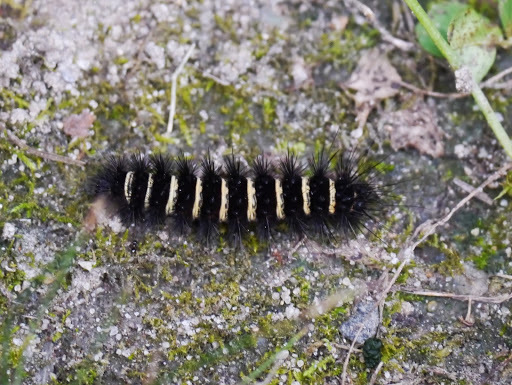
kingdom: Animalia
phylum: Arthropoda
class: Insecta
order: Lepidoptera
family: Erebidae
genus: Spilosoma
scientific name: Spilosoma congrua
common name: Agreeable tiger moth
